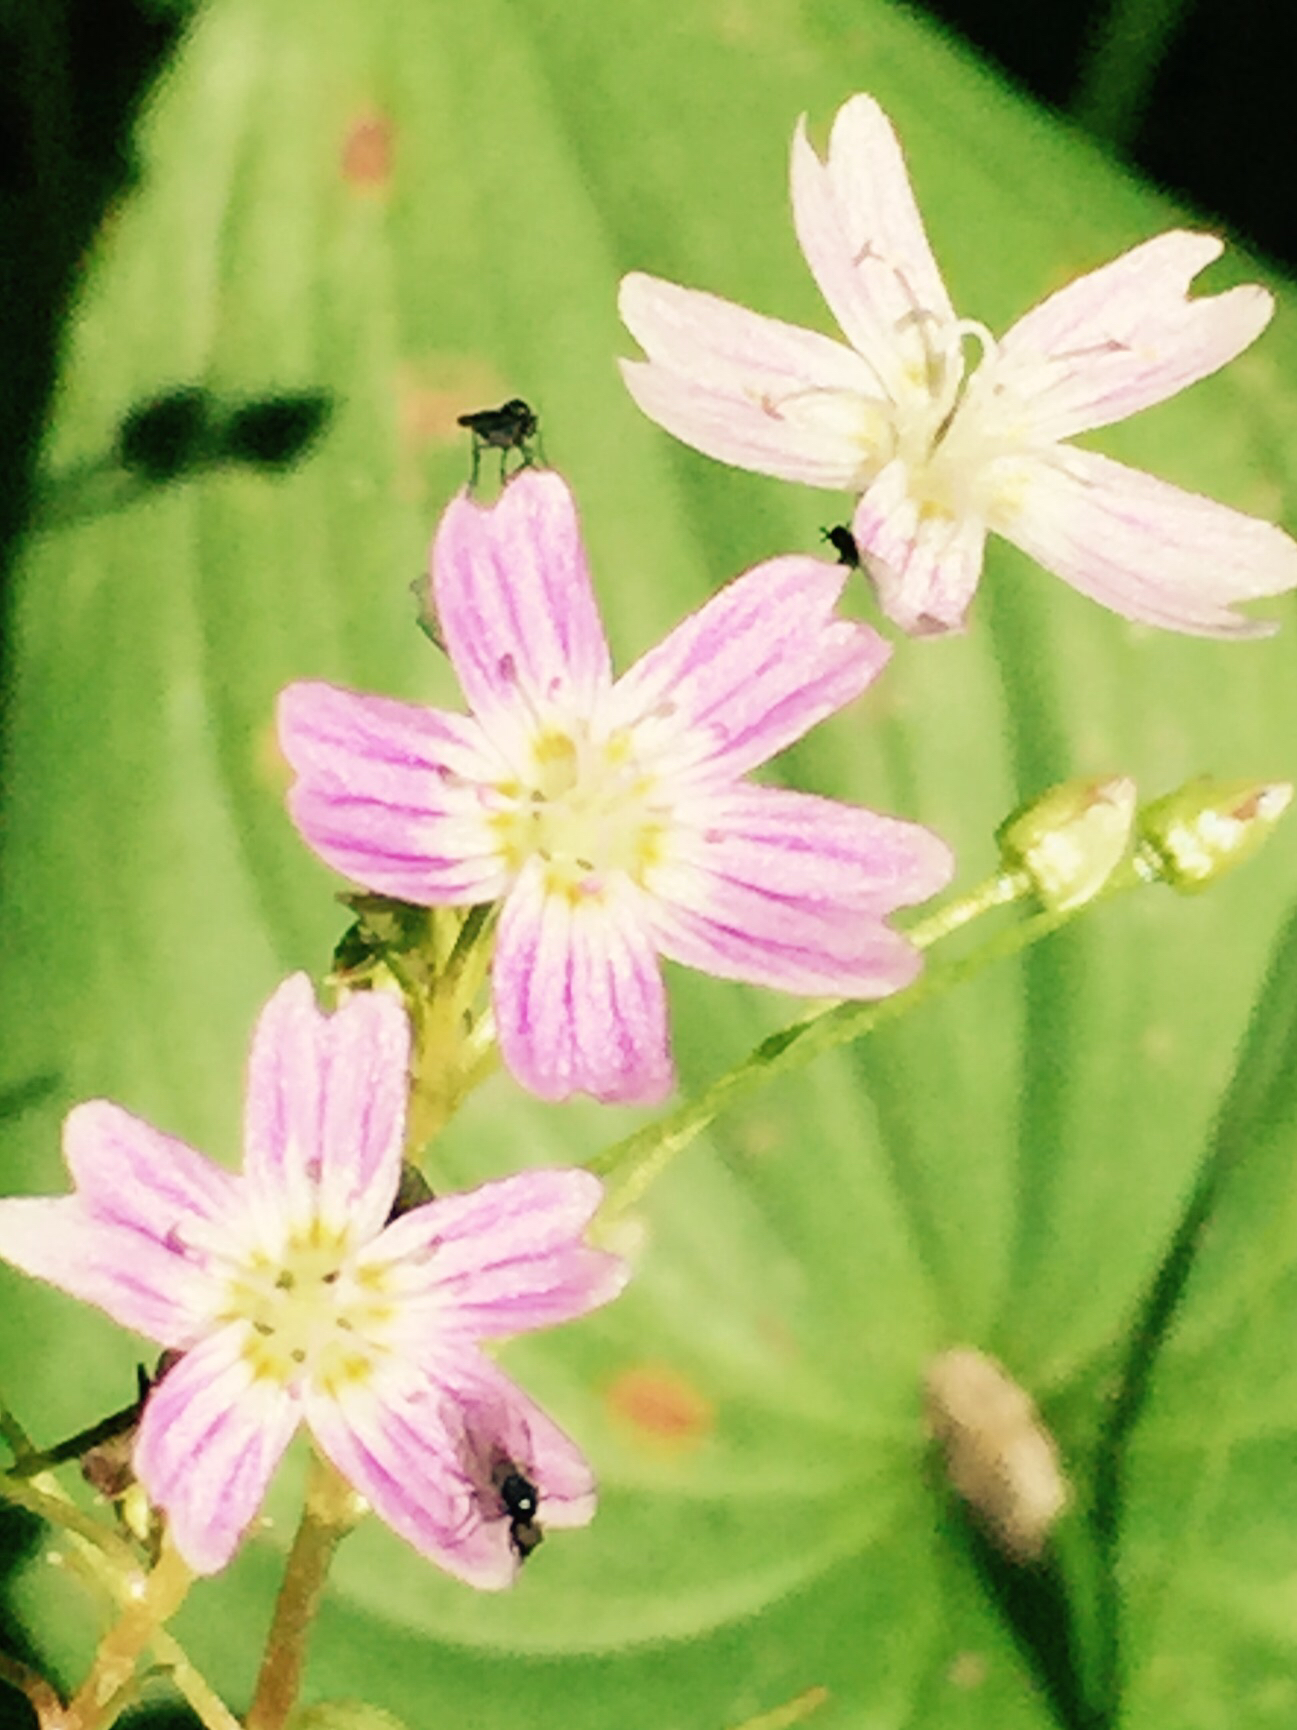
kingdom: Plantae
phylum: Tracheophyta
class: Magnoliopsida
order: Caryophyllales
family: Montiaceae
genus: Claytonia
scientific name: Claytonia sibirica
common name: Pink purslane
